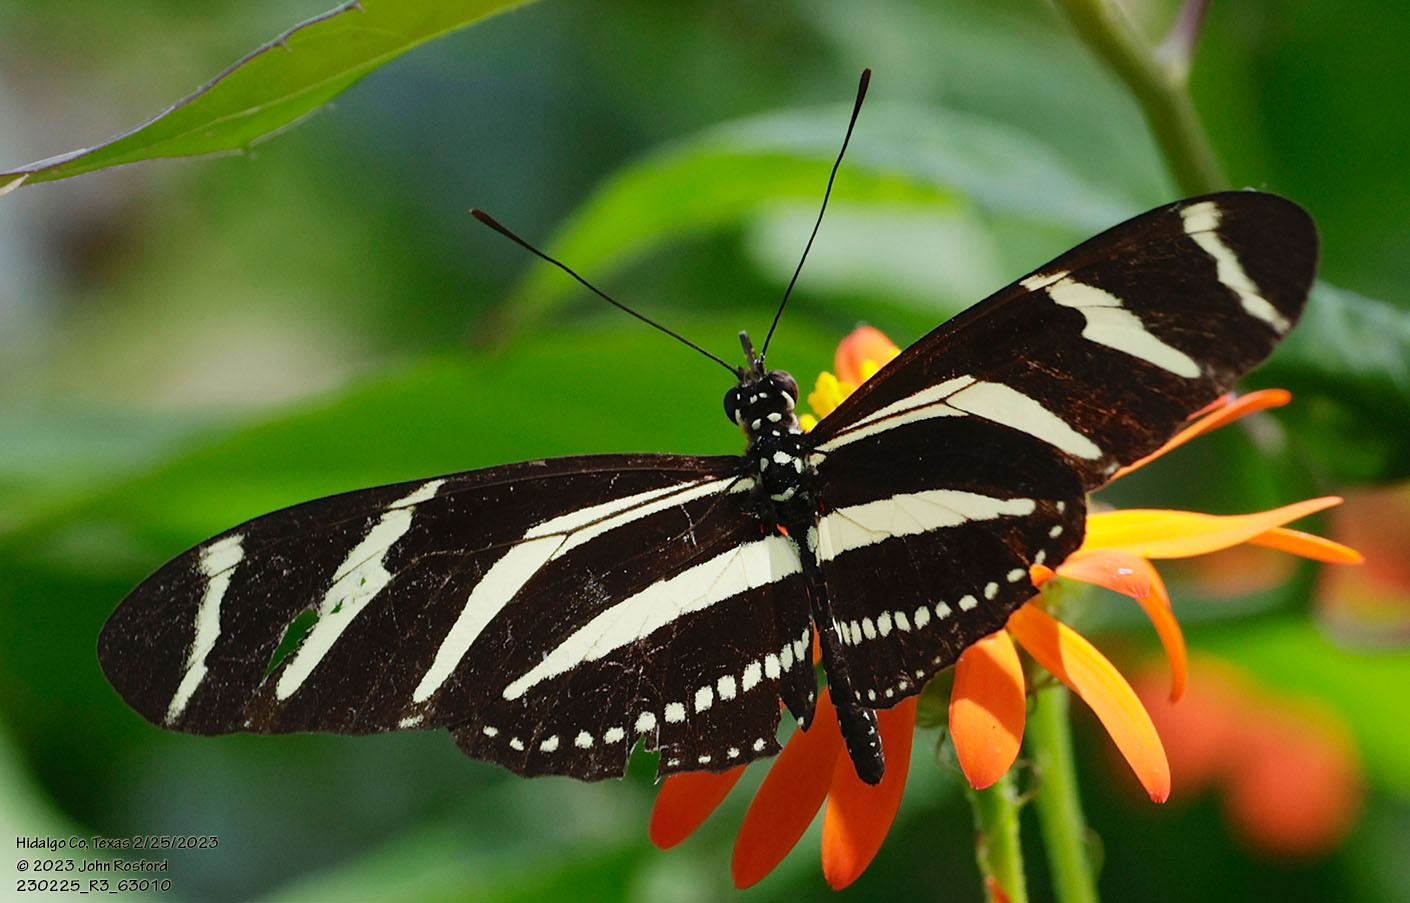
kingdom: Animalia
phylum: Arthropoda
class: Insecta
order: Lepidoptera
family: Nymphalidae
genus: Heliconius
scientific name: Heliconius charithonia
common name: Zebra long wing
